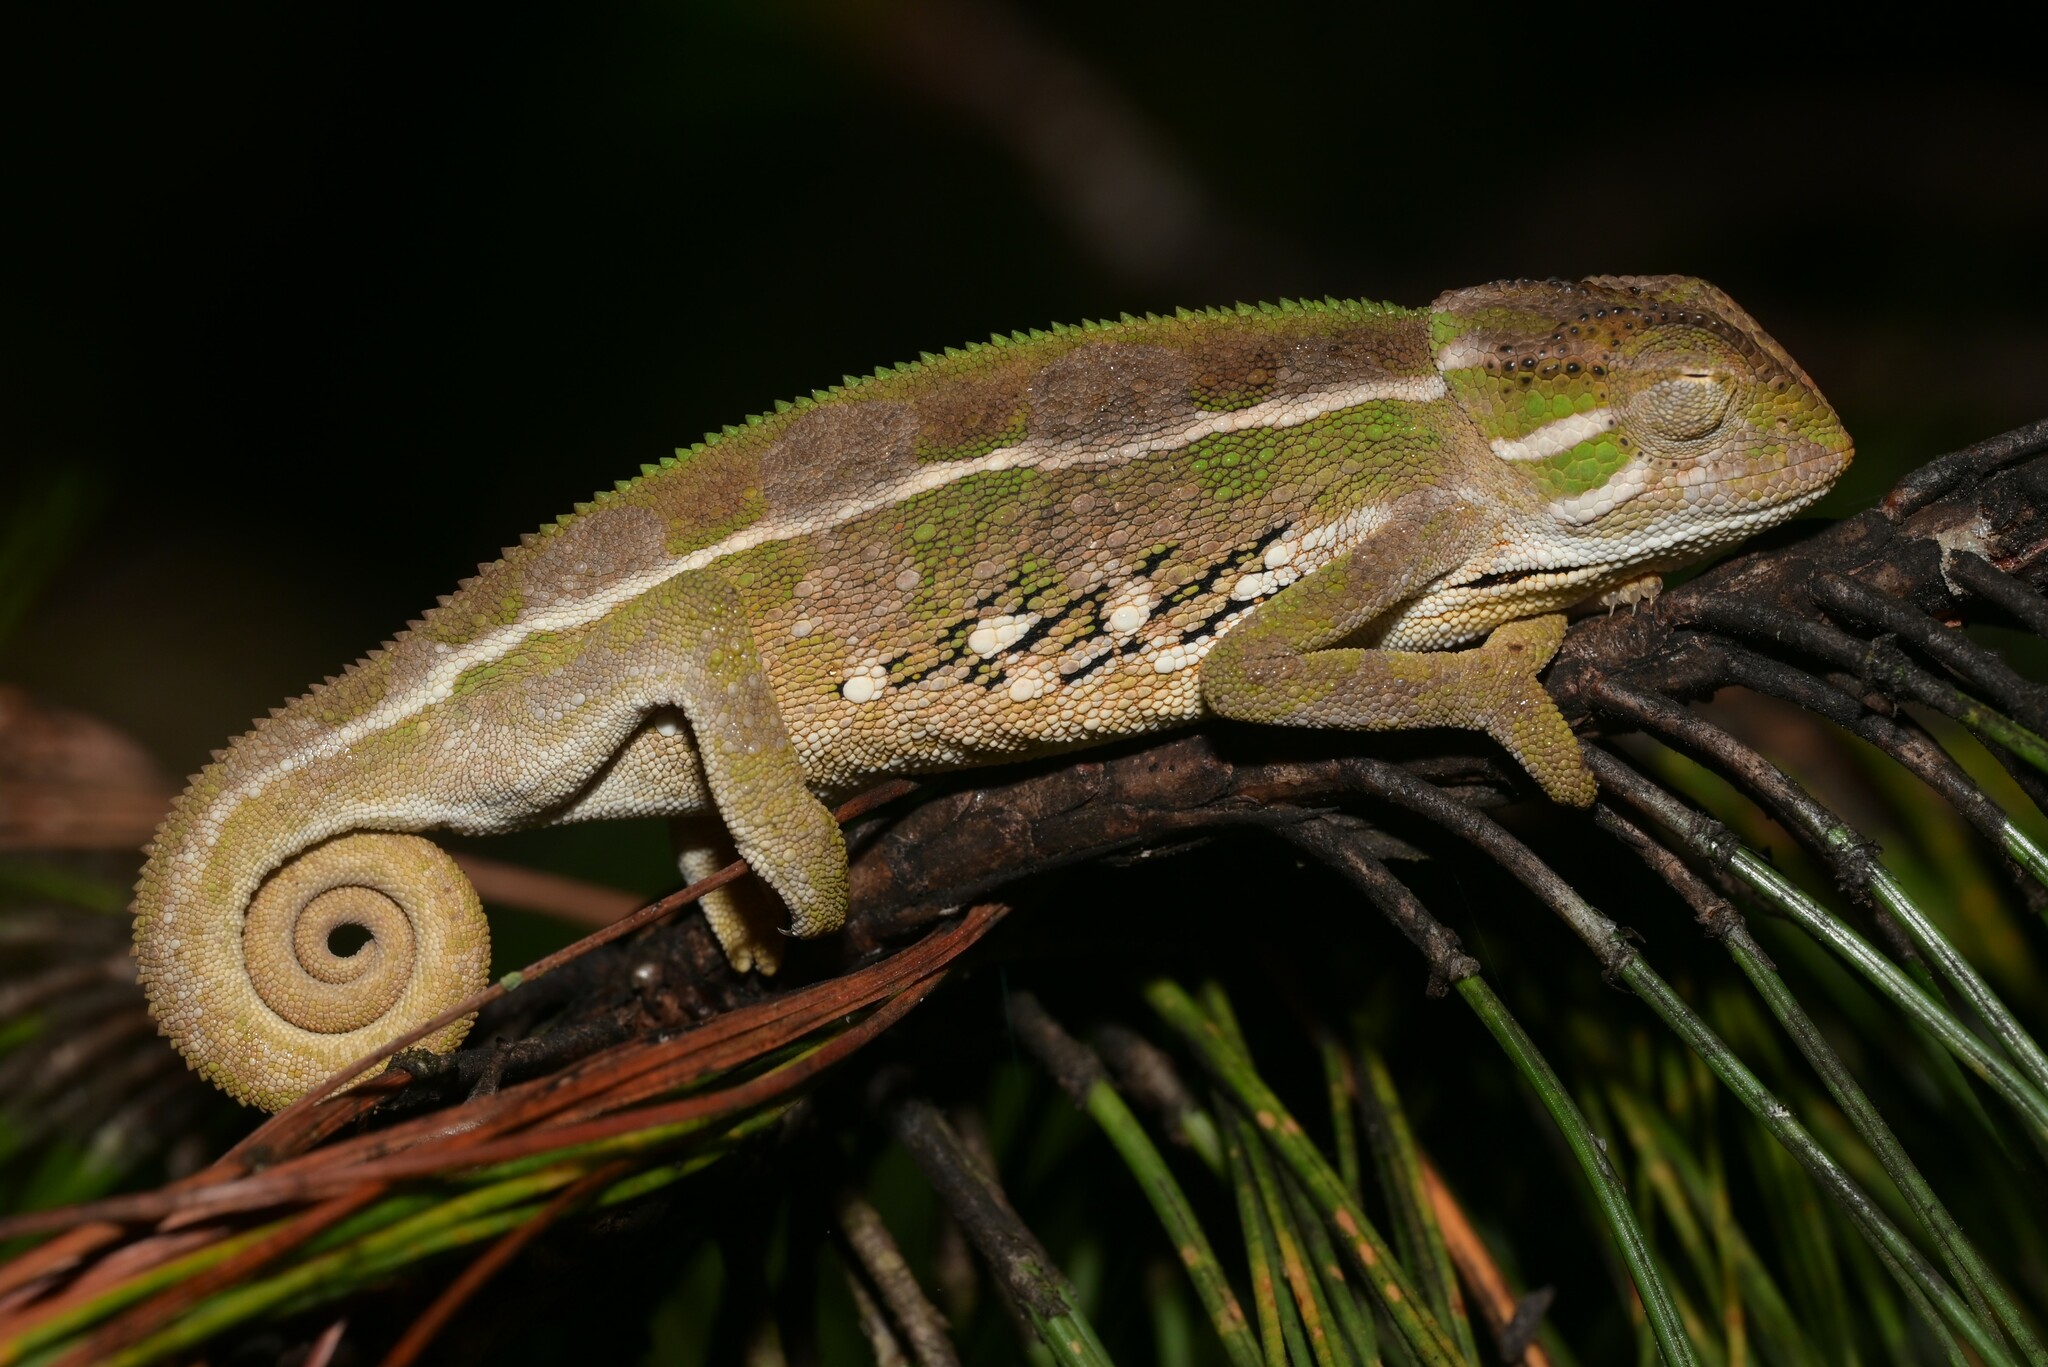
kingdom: Animalia
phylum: Chordata
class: Squamata
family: Chamaeleonidae
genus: Trioceros
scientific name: Trioceros goetzei
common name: Ilolo chameleon
